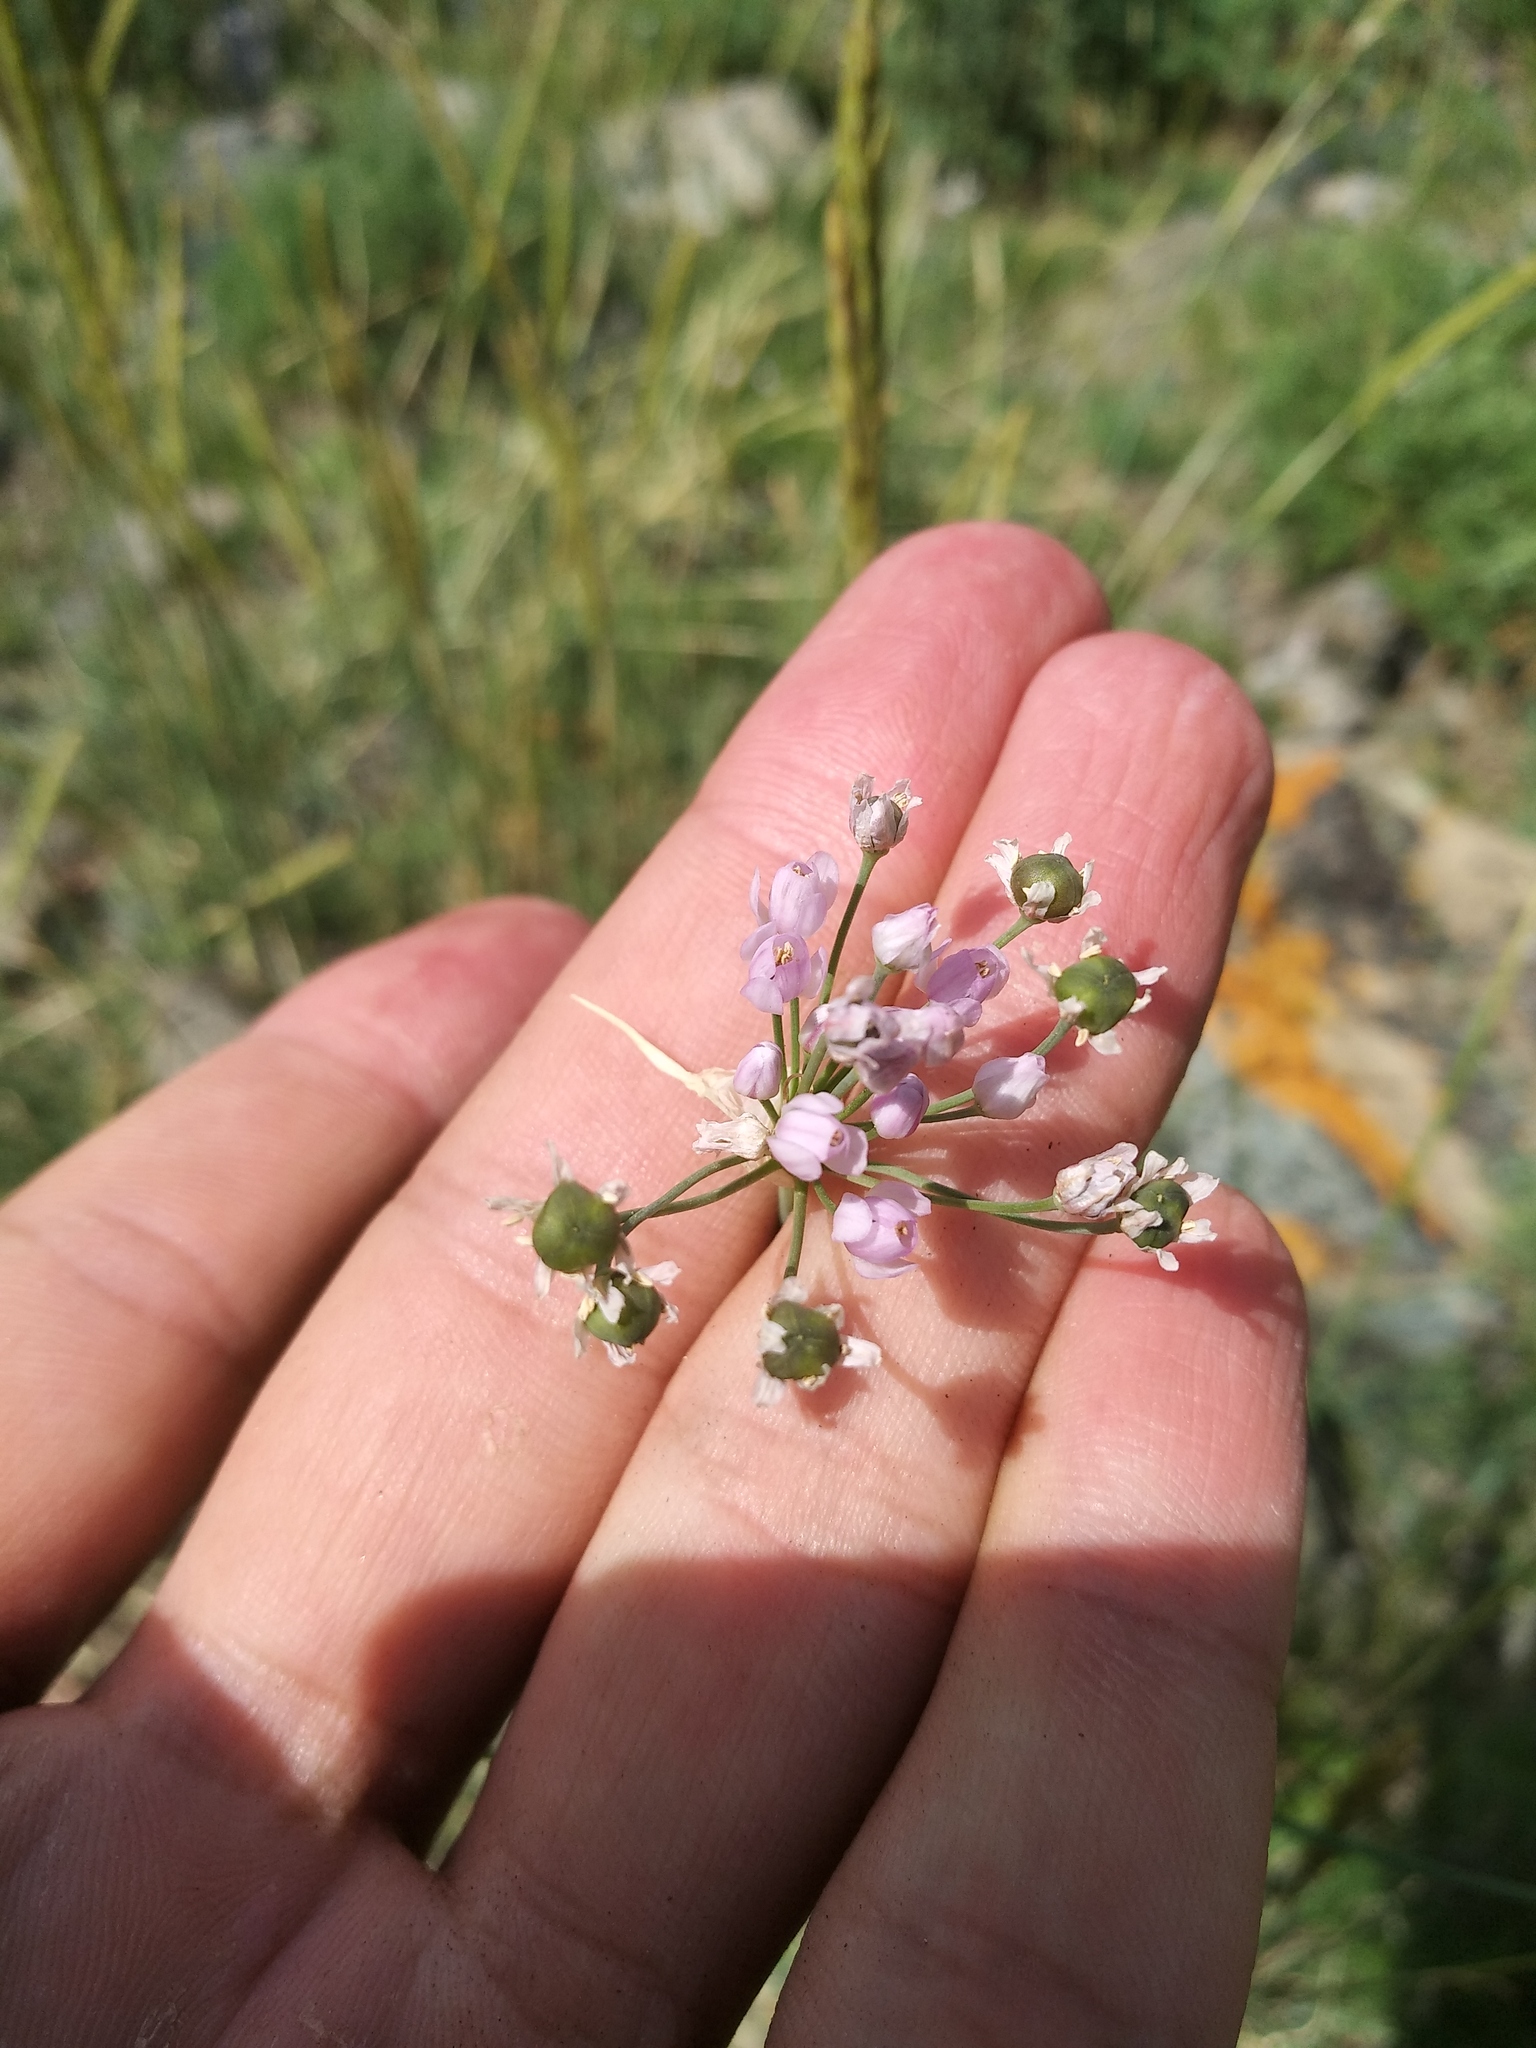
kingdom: Plantae
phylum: Tracheophyta
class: Liliopsida
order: Asparagales
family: Amaryllidaceae
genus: Allium
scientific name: Allium anisopodium
